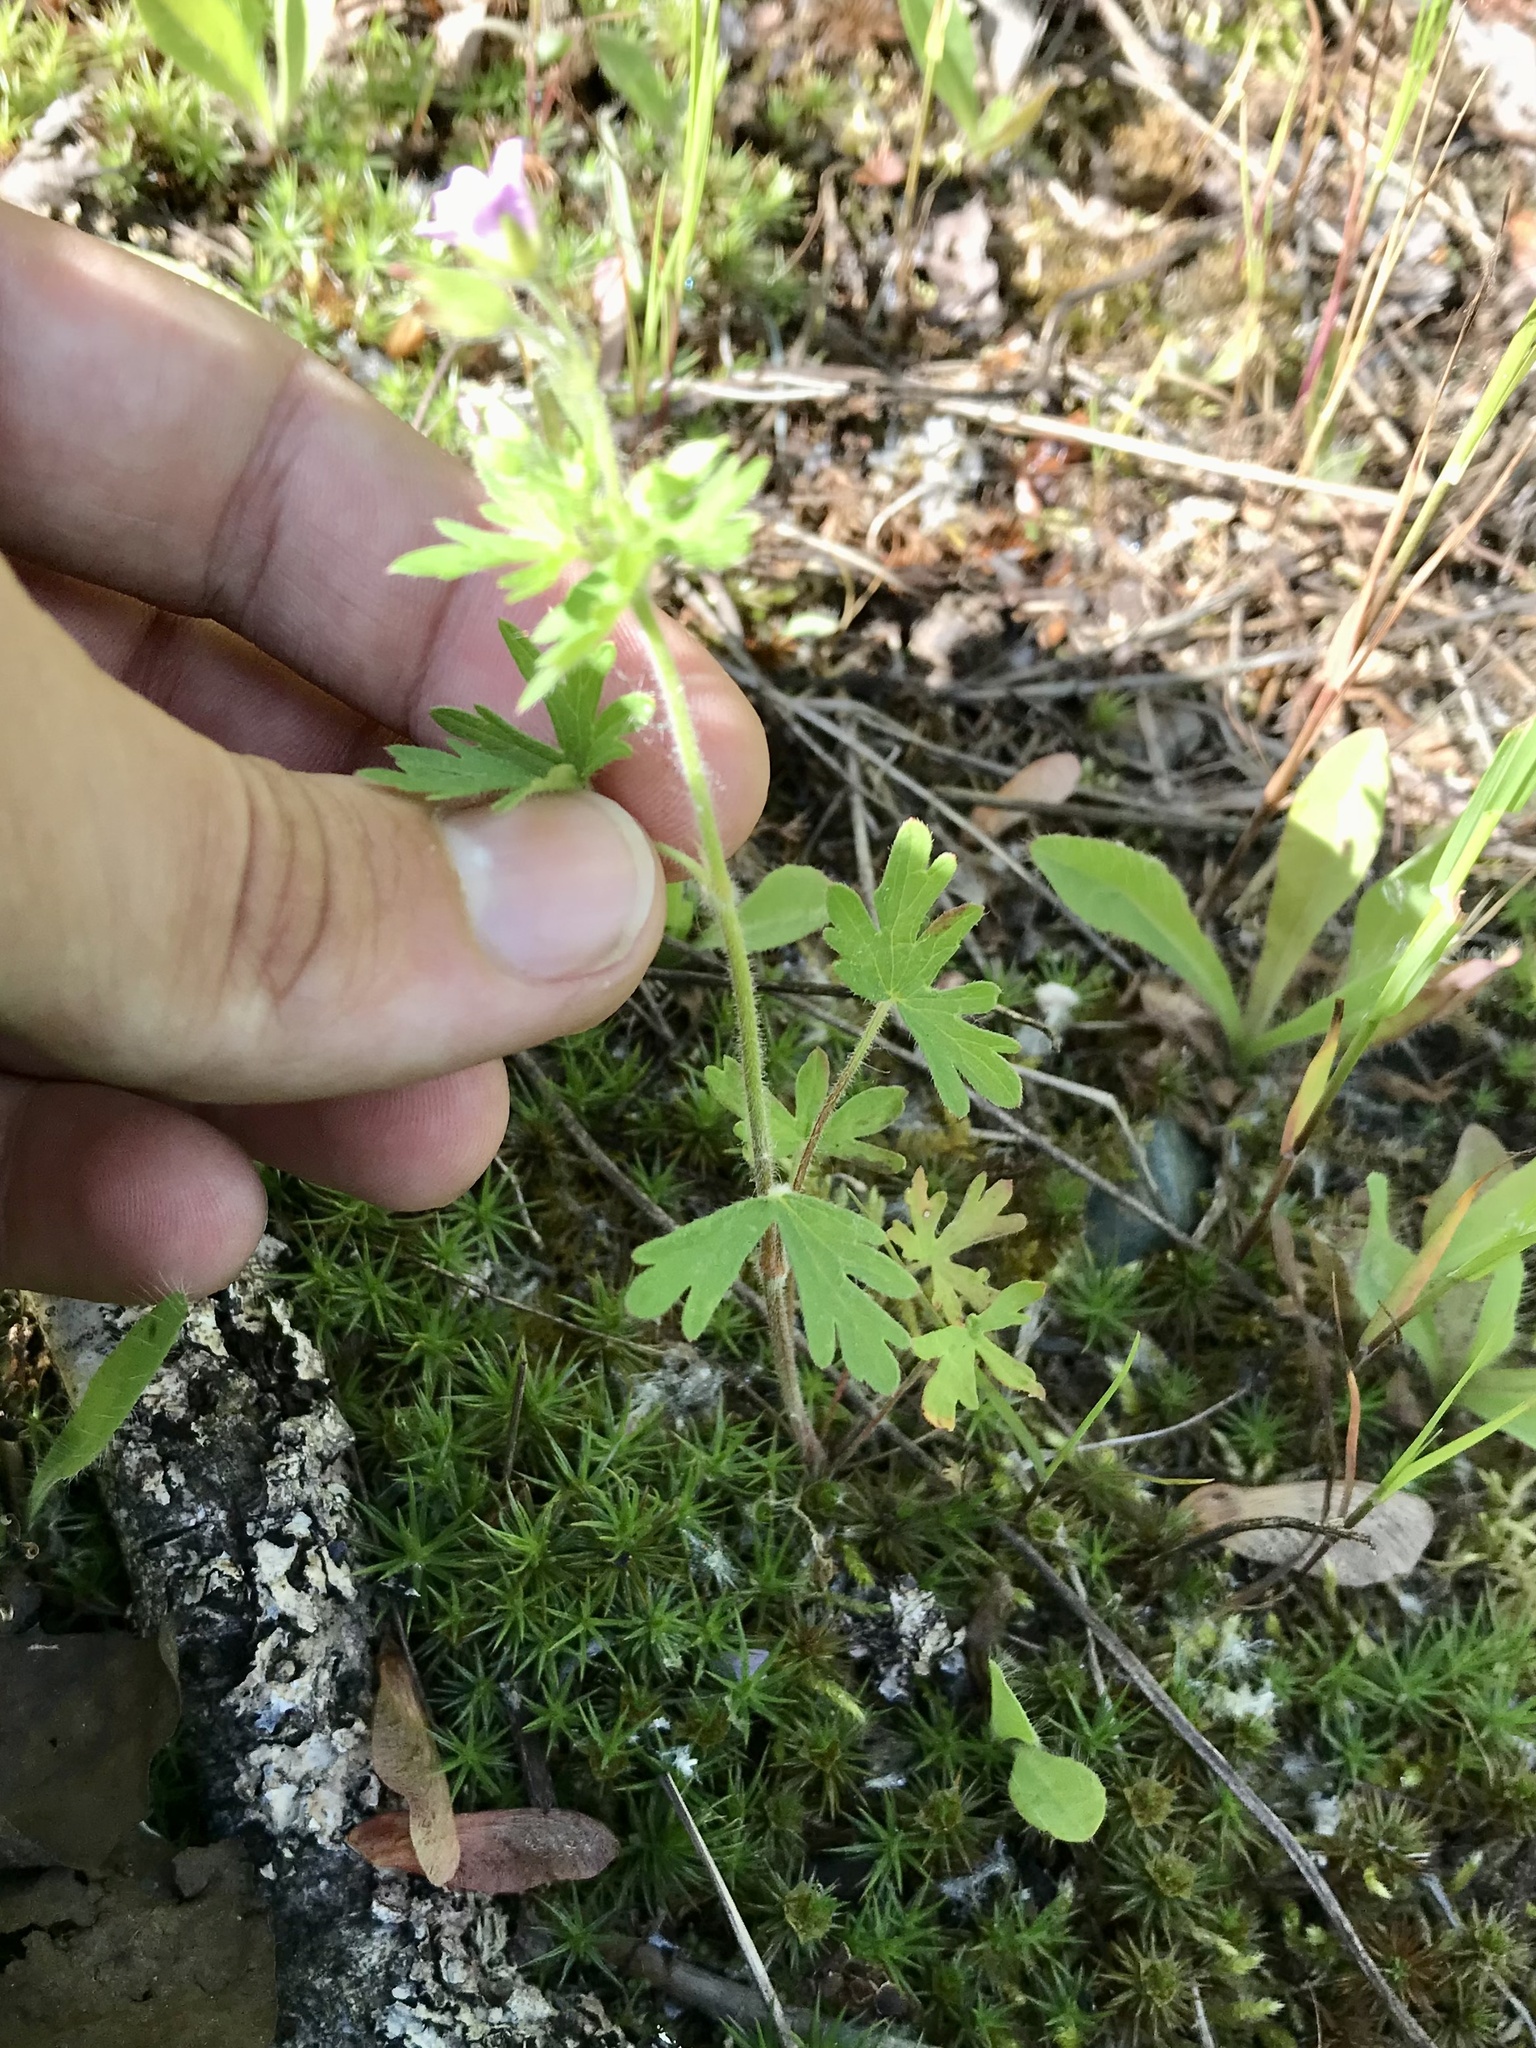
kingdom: Plantae
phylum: Tracheophyta
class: Magnoliopsida
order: Geraniales
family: Geraniaceae
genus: Geranium
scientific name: Geranium bicknellii
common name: Bicknell's cranesbill
